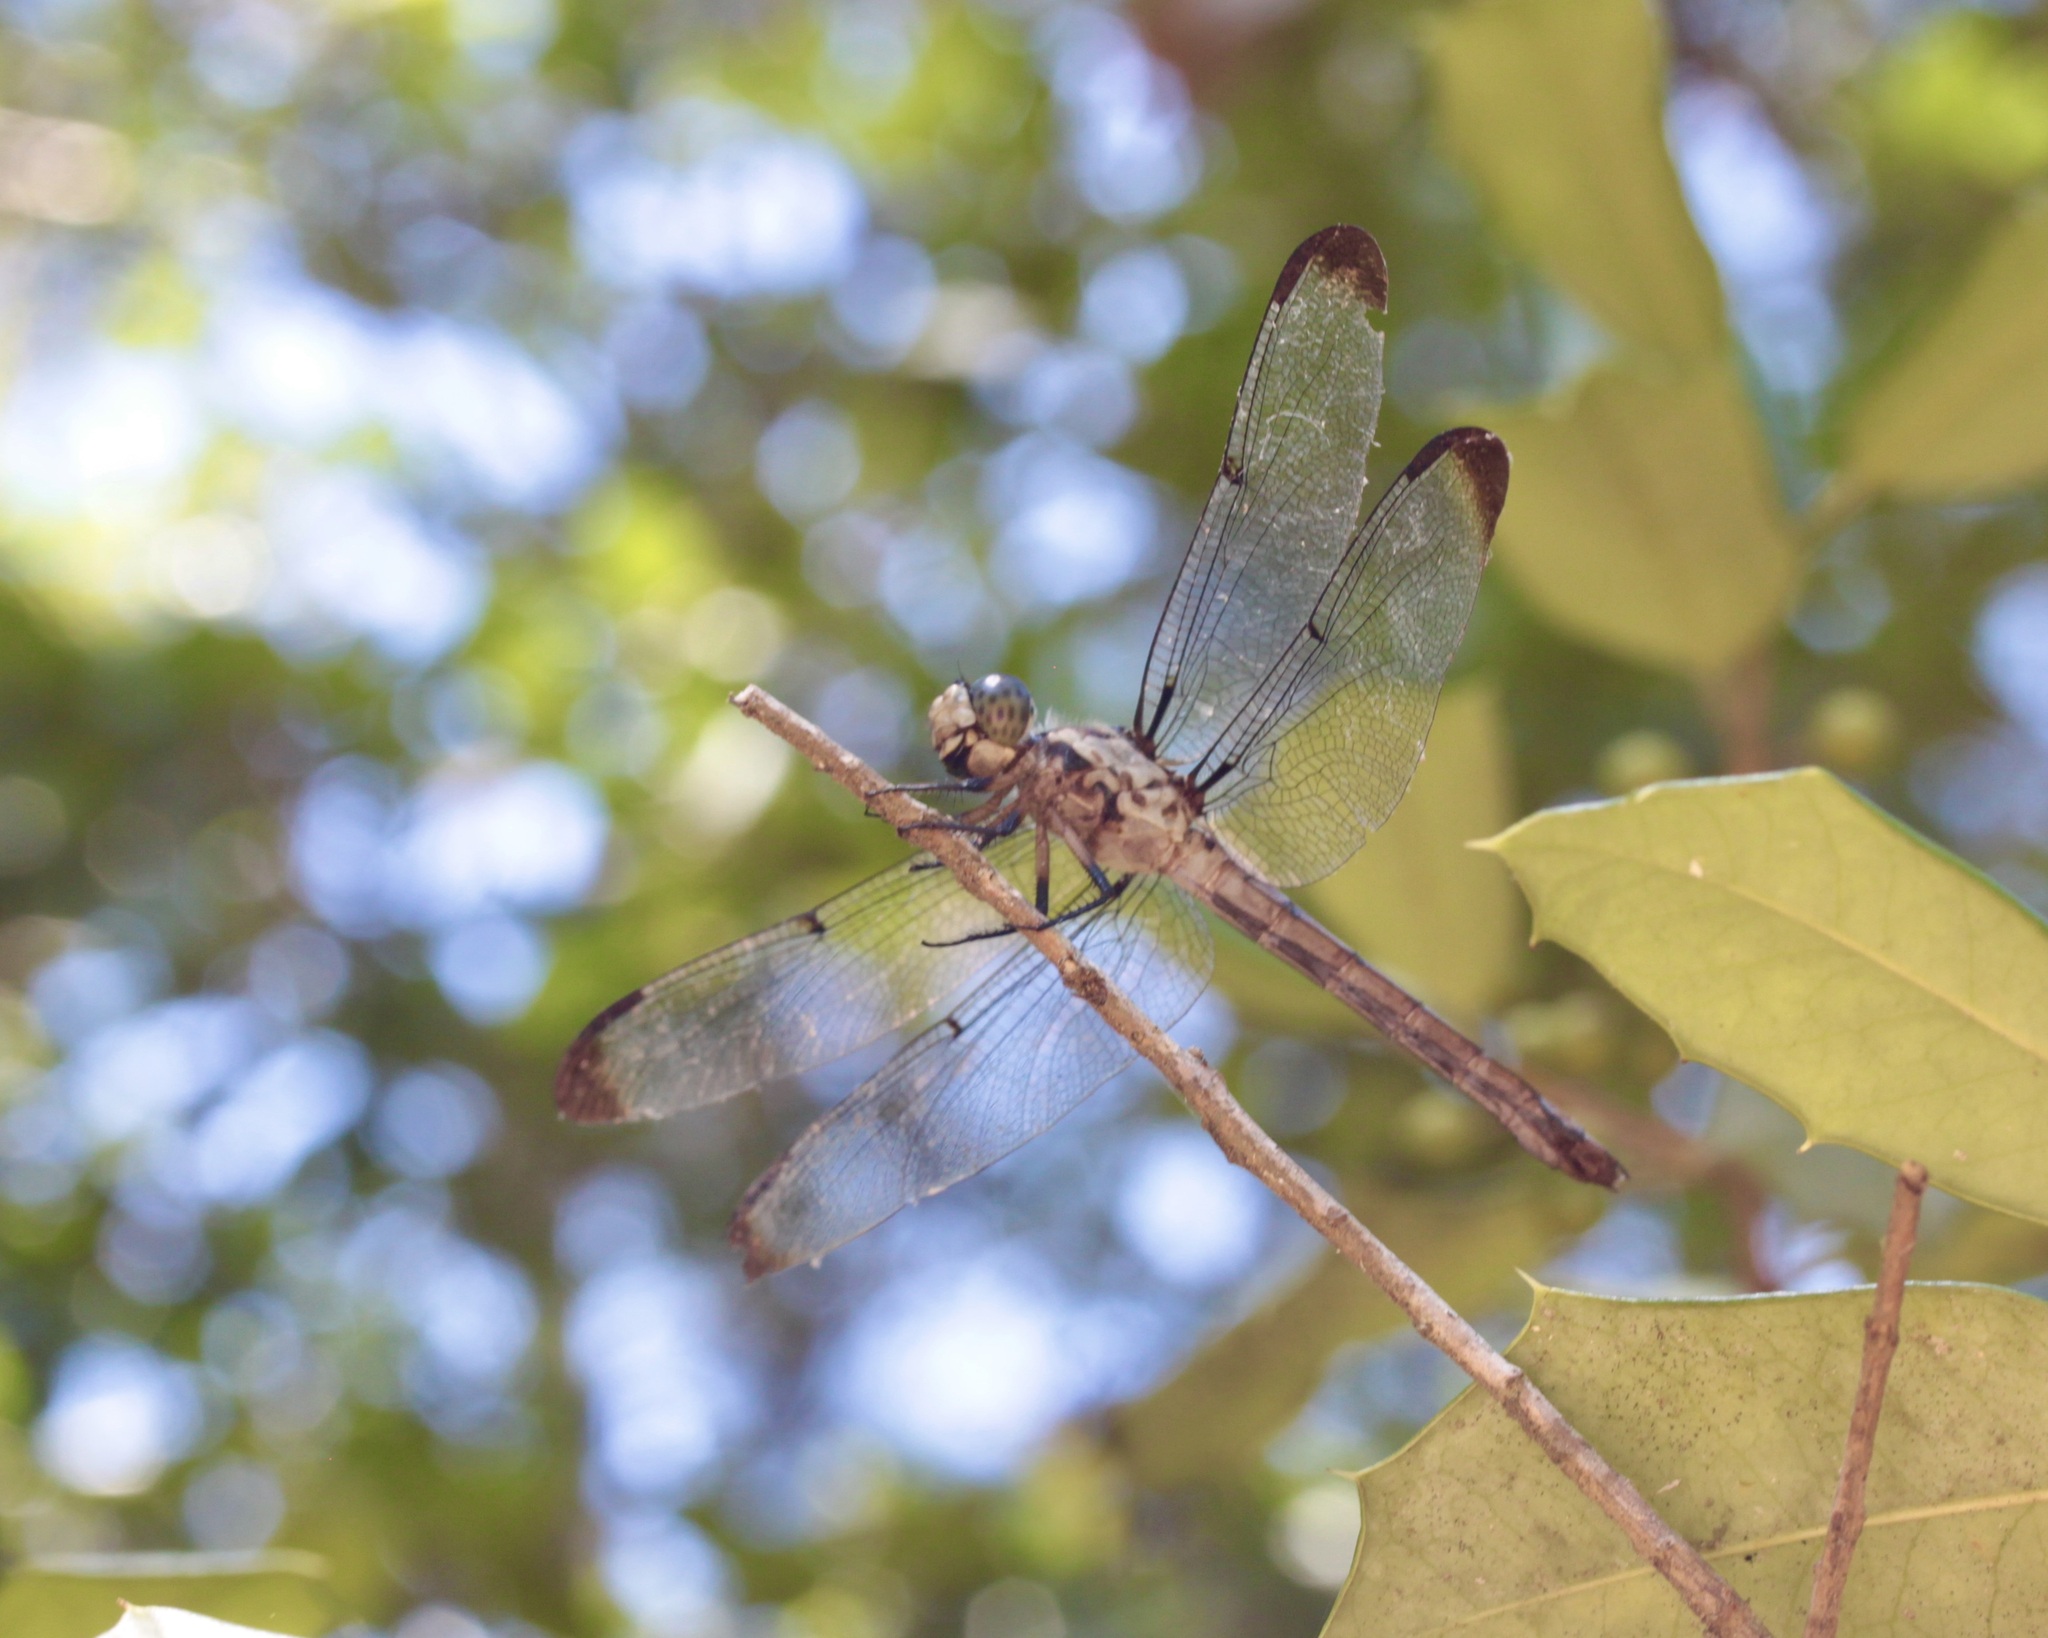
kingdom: Animalia
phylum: Arthropoda
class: Insecta
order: Odonata
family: Libellulidae
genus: Libellula
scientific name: Libellula vibrans
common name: Great blue skimmer
